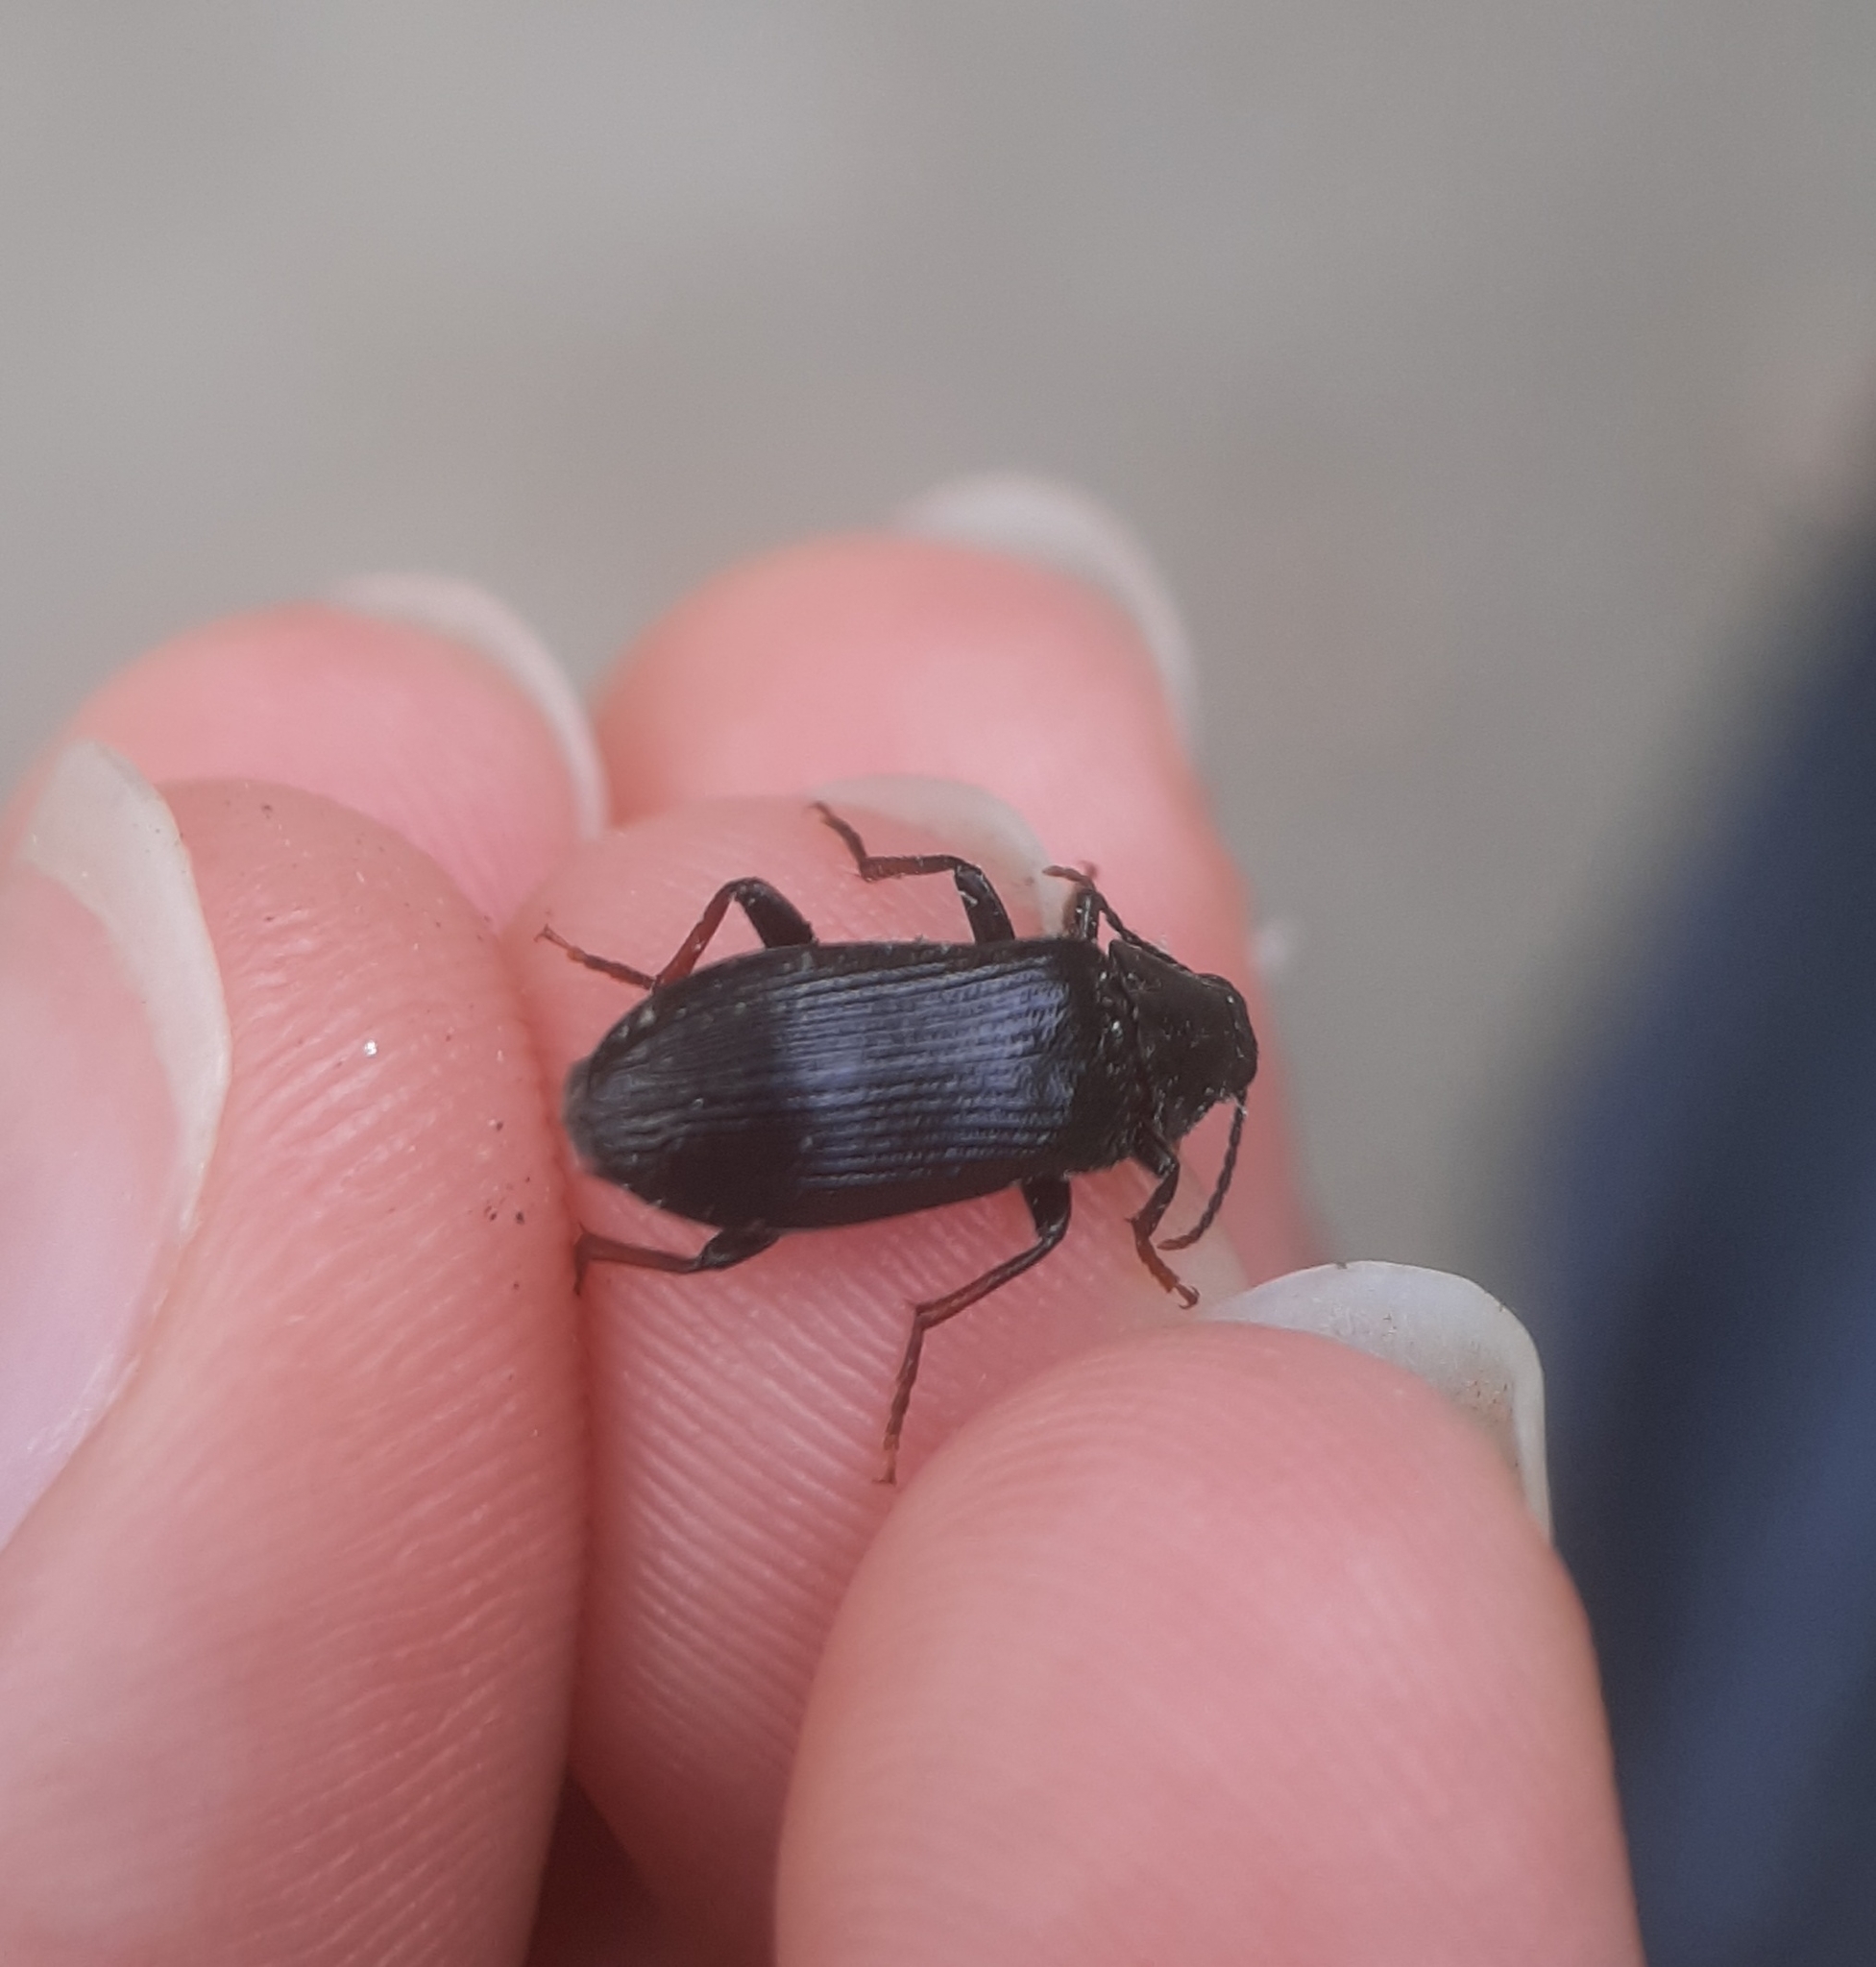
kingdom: Animalia
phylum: Arthropoda
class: Insecta
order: Coleoptera
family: Melandryidae
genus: Melandrya
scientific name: Melandrya striata
